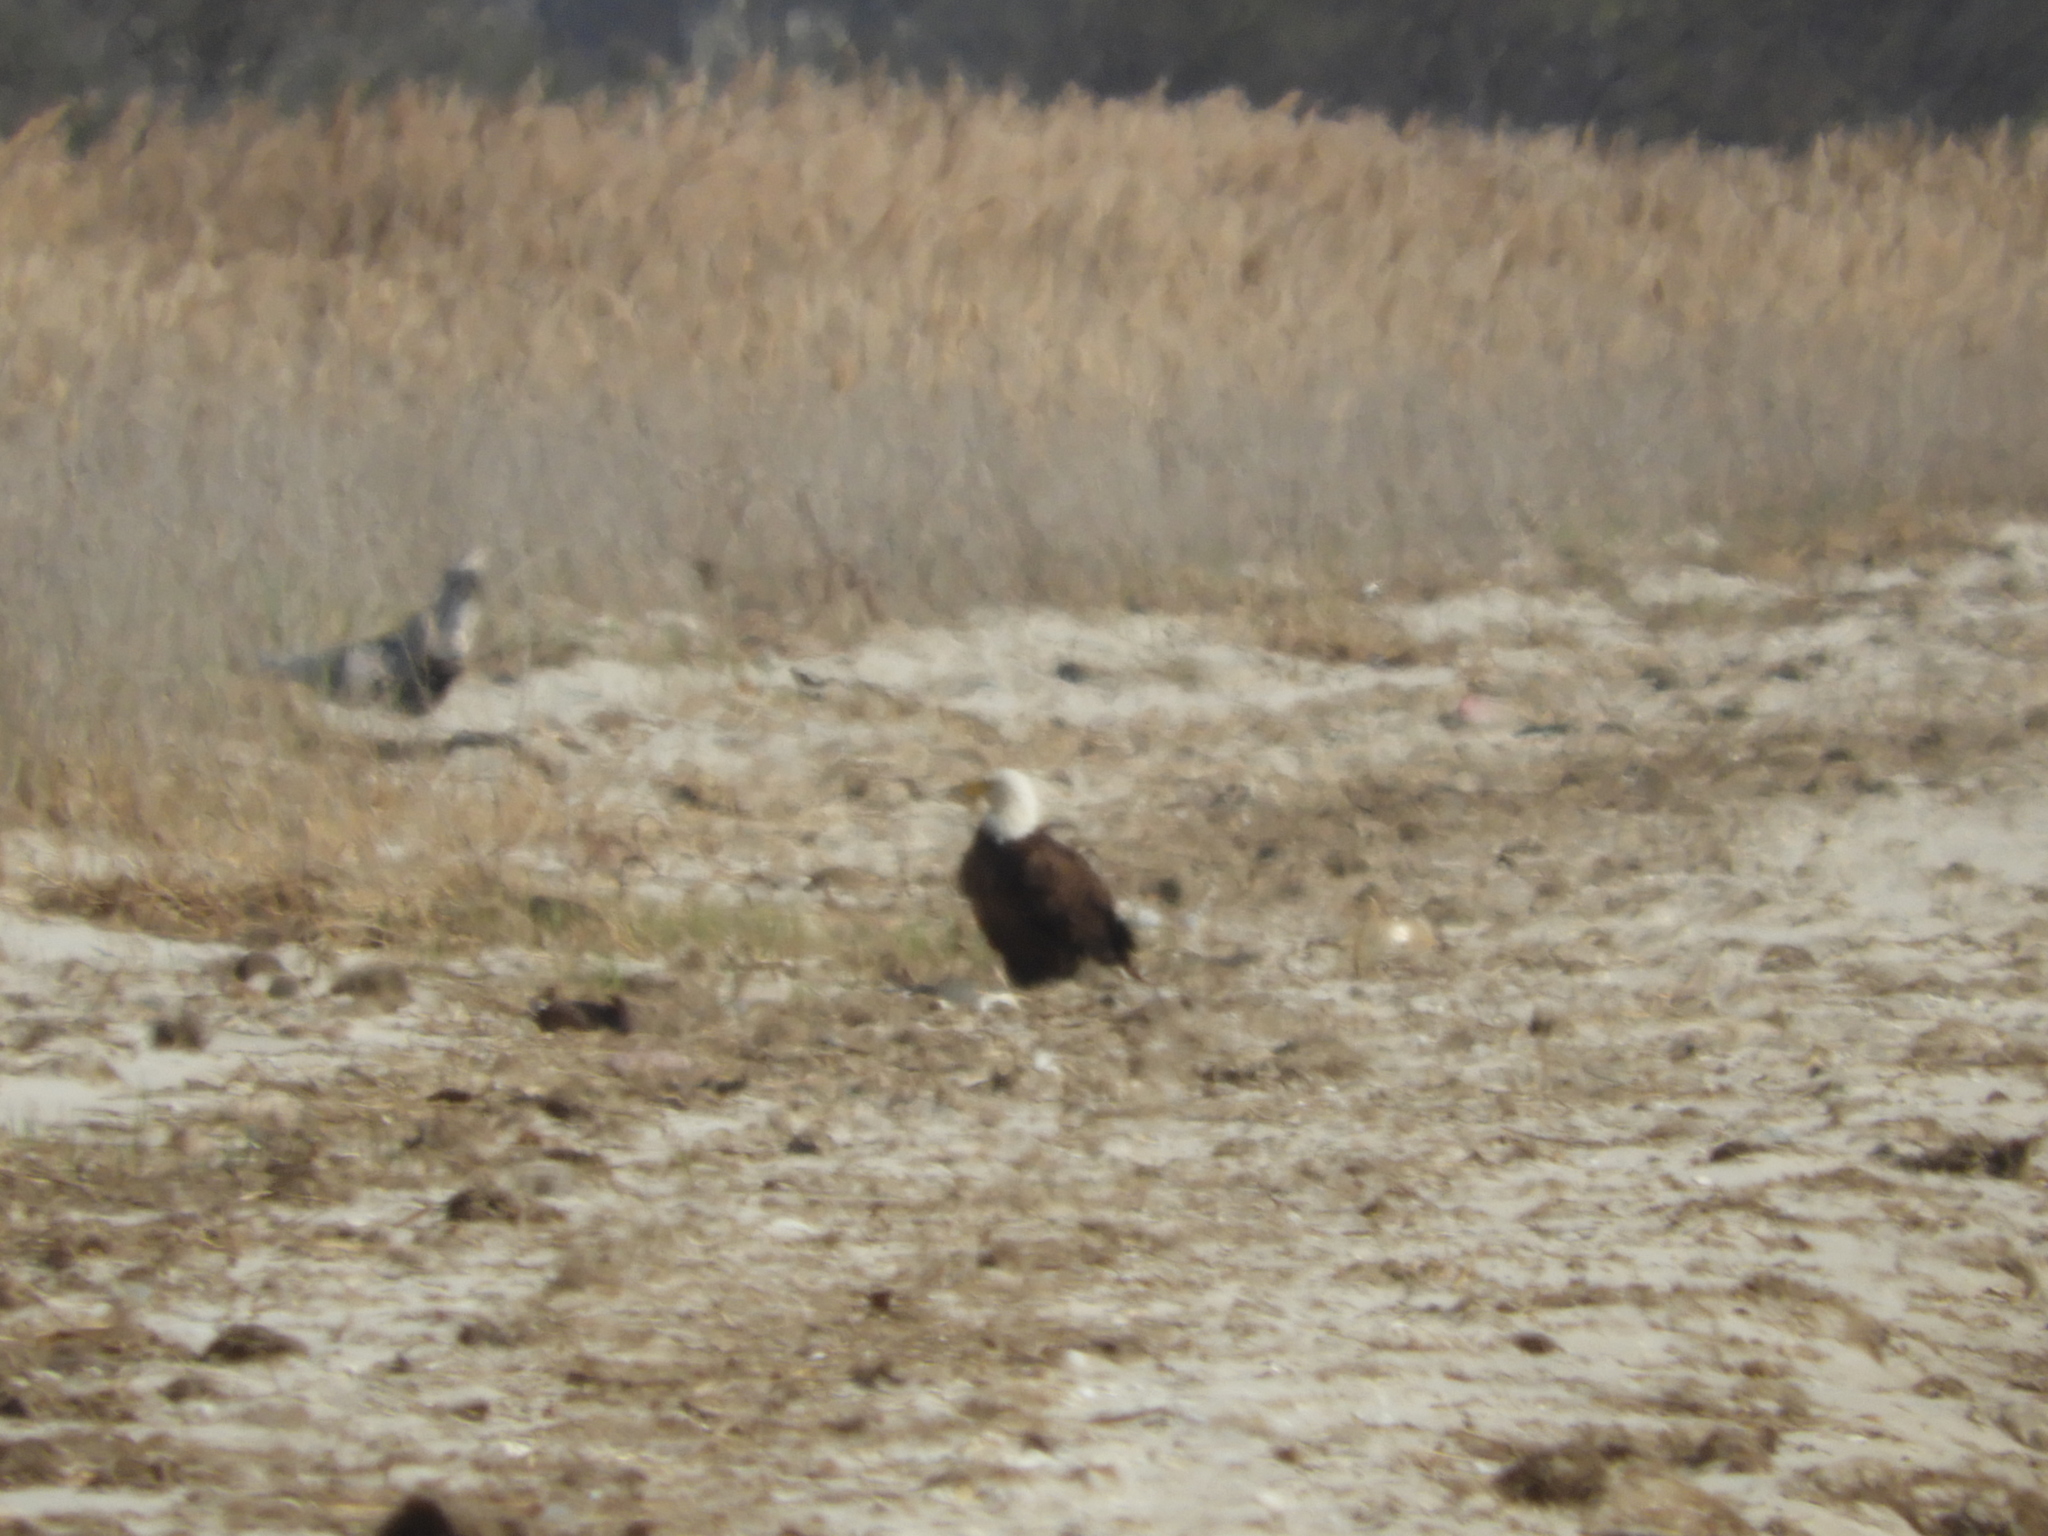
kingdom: Animalia
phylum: Chordata
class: Aves
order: Accipitriformes
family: Accipitridae
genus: Haliaeetus
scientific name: Haliaeetus leucocephalus
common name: Bald eagle
